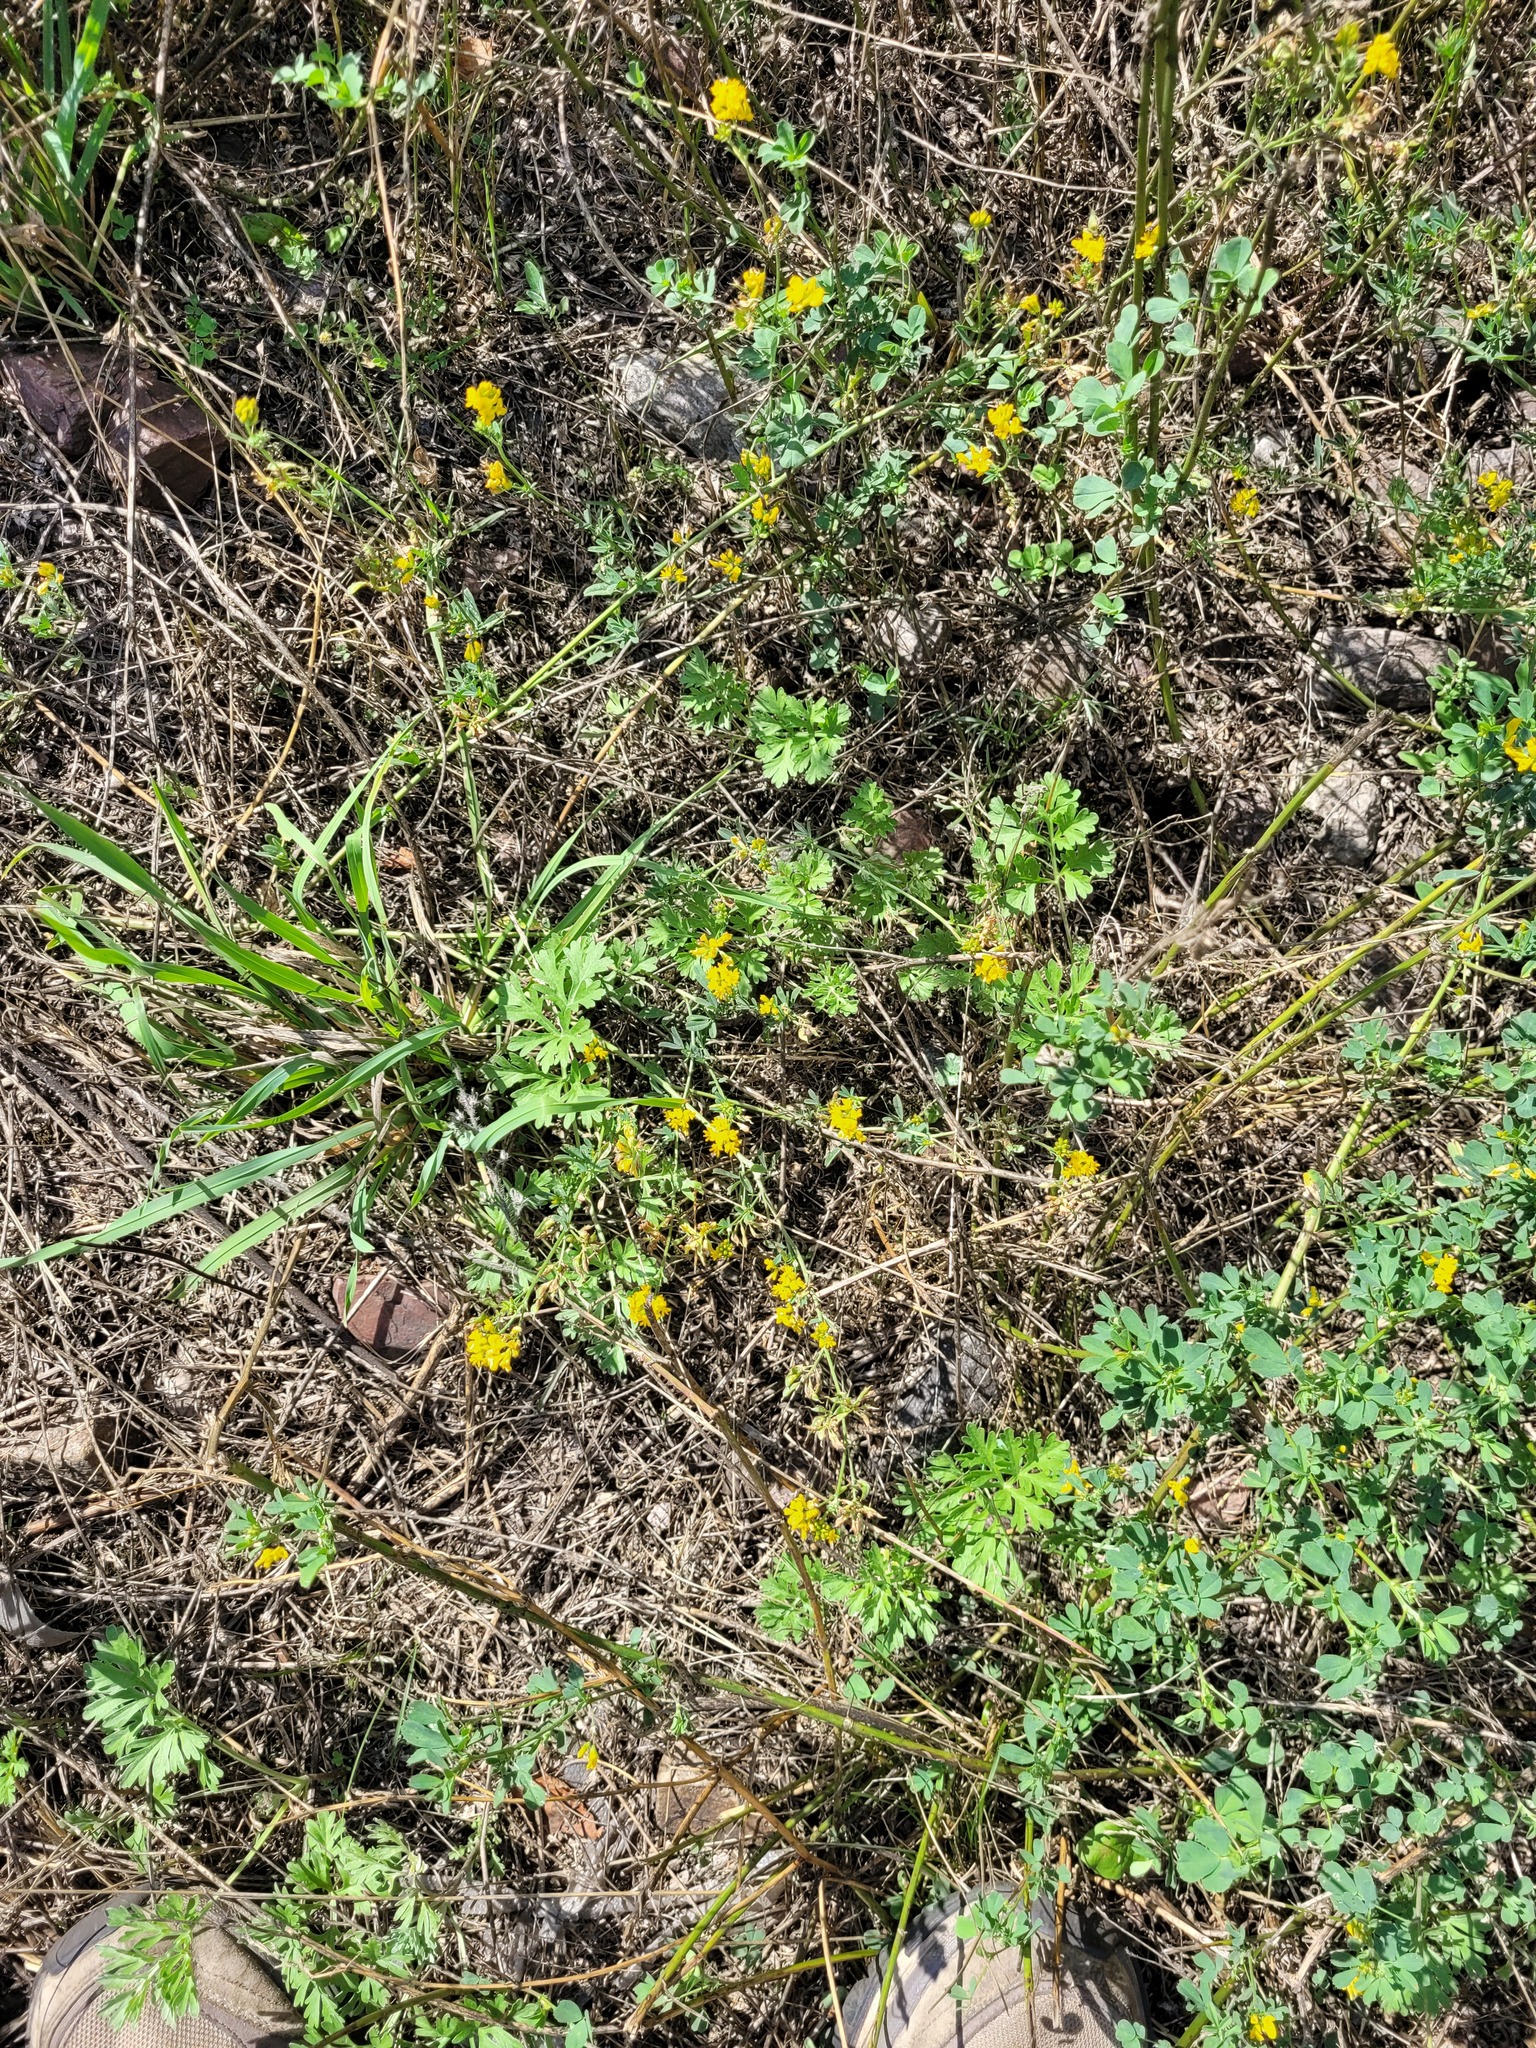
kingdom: Plantae
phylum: Tracheophyta
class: Magnoliopsida
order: Fabales
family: Fabaceae
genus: Medicago
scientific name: Medicago falcata
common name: Sickle medick
